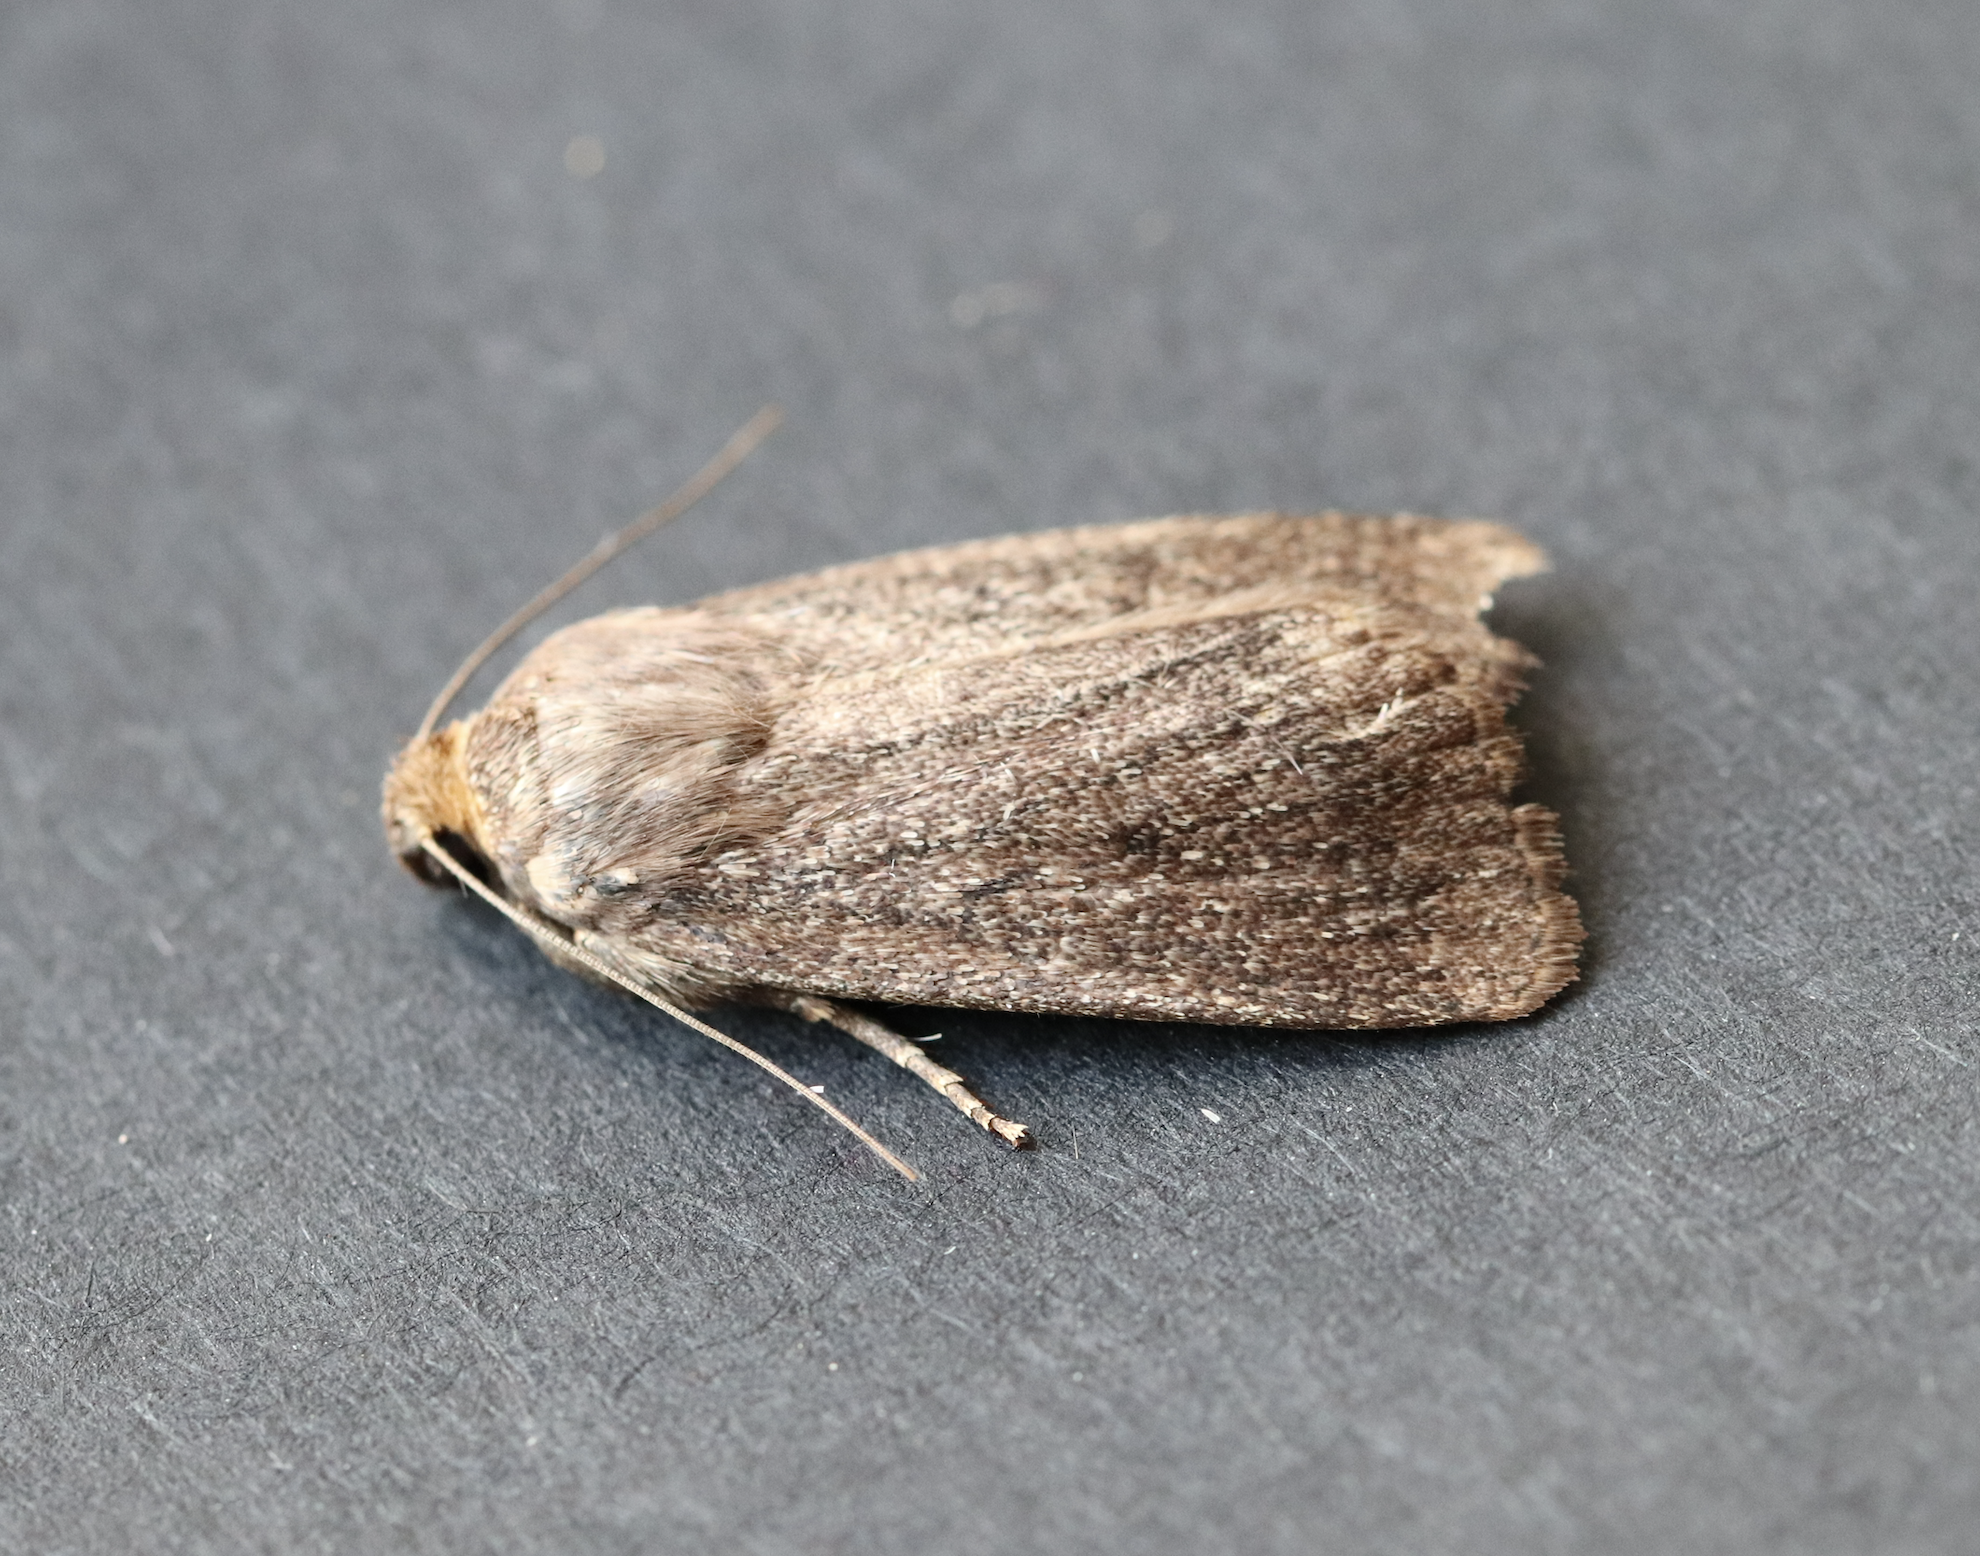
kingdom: Animalia
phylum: Arthropoda
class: Insecta
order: Lepidoptera
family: Noctuidae
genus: Amphipyra
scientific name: Amphipyra tragopoginis
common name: Mouse moth
